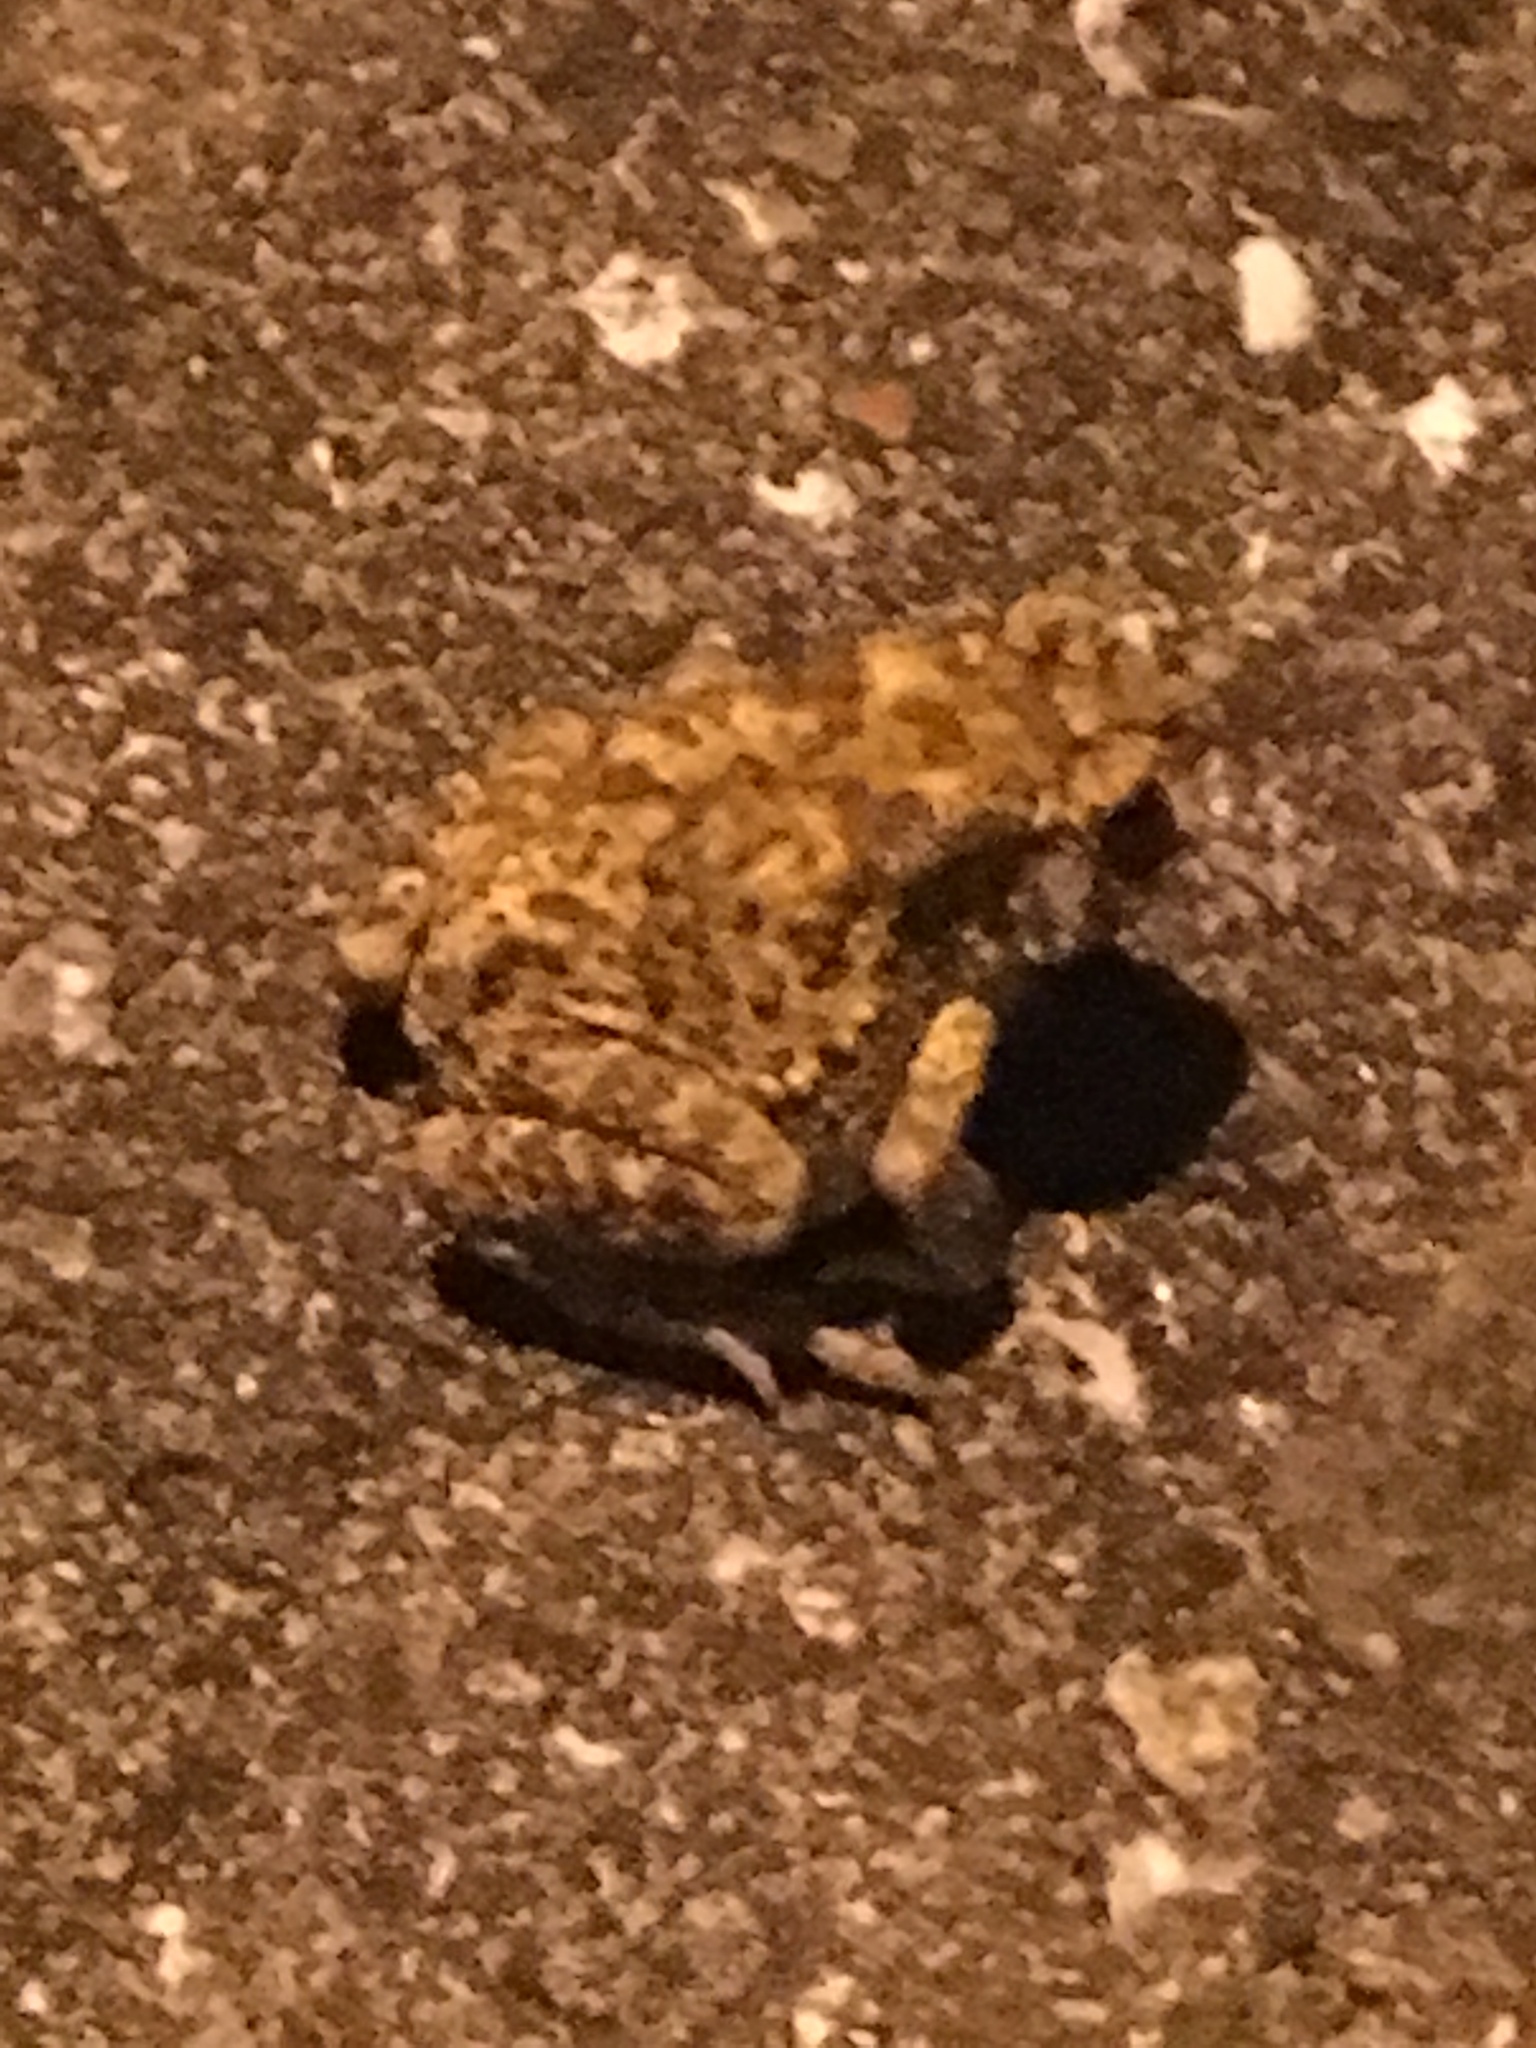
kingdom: Animalia
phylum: Chordata
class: Amphibia
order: Anura
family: Bufonidae
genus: Duttaphrynus
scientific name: Duttaphrynus melanostictus
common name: Common sunda toad
